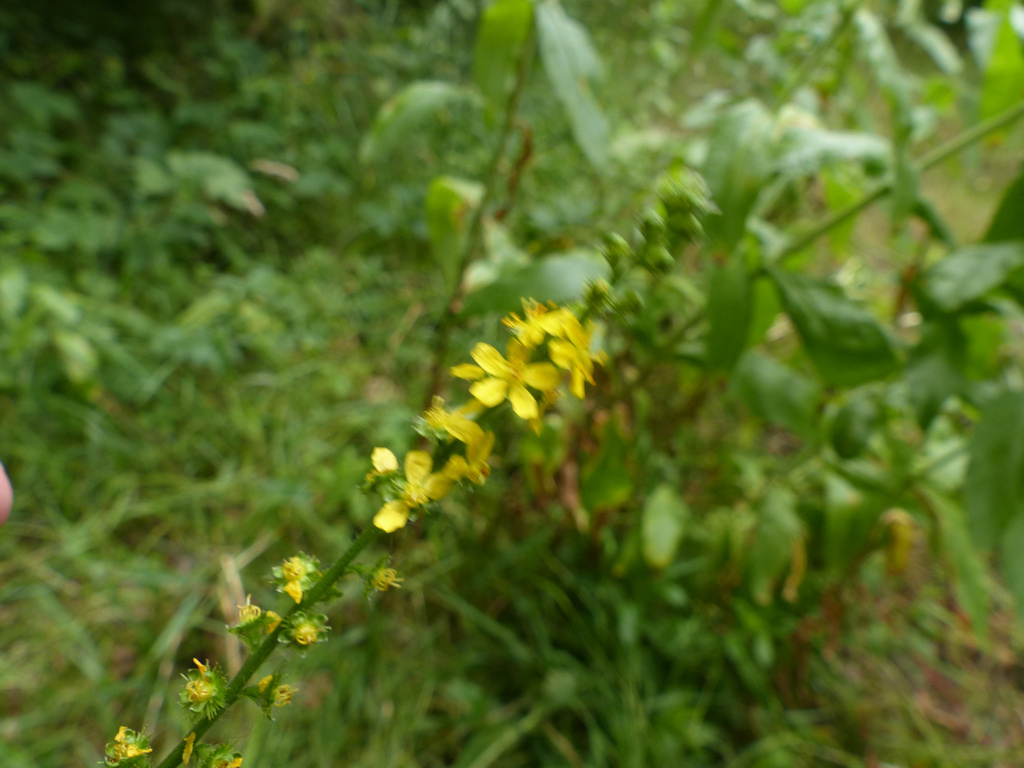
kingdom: Plantae
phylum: Tracheophyta
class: Magnoliopsida
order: Rosales
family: Rosaceae
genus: Agrimonia
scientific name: Agrimonia eupatoria
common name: Agrimony
